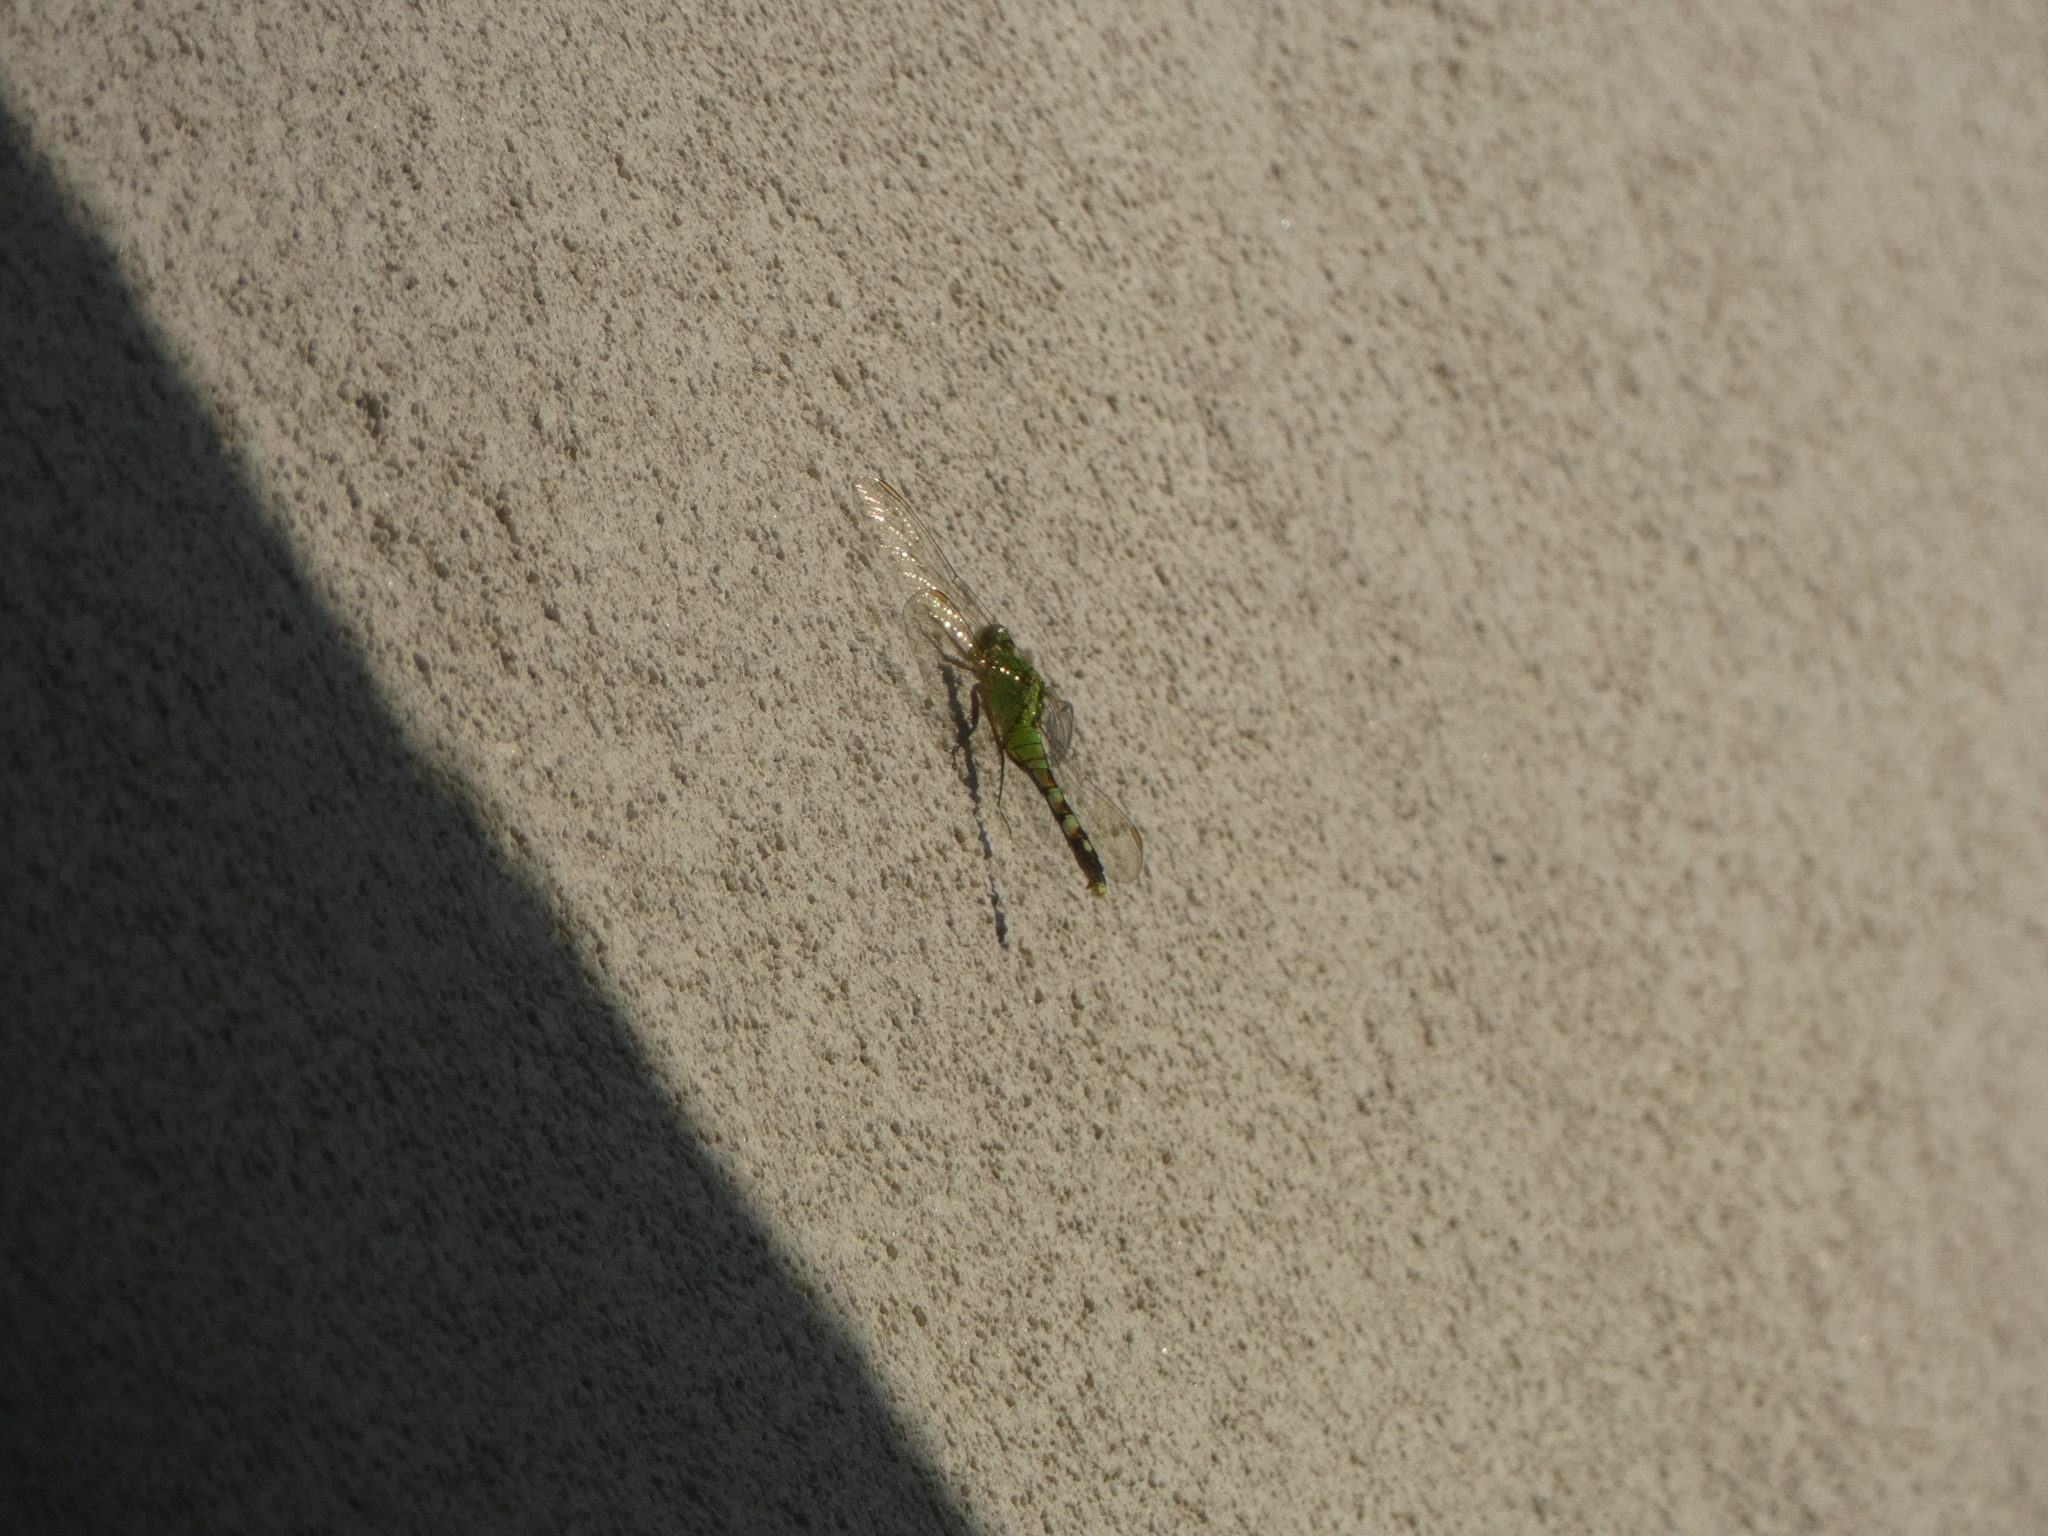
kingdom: Animalia
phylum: Arthropoda
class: Insecta
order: Odonata
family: Libellulidae
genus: Erythemis
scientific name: Erythemis simplicicollis
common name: Eastern pondhawk
